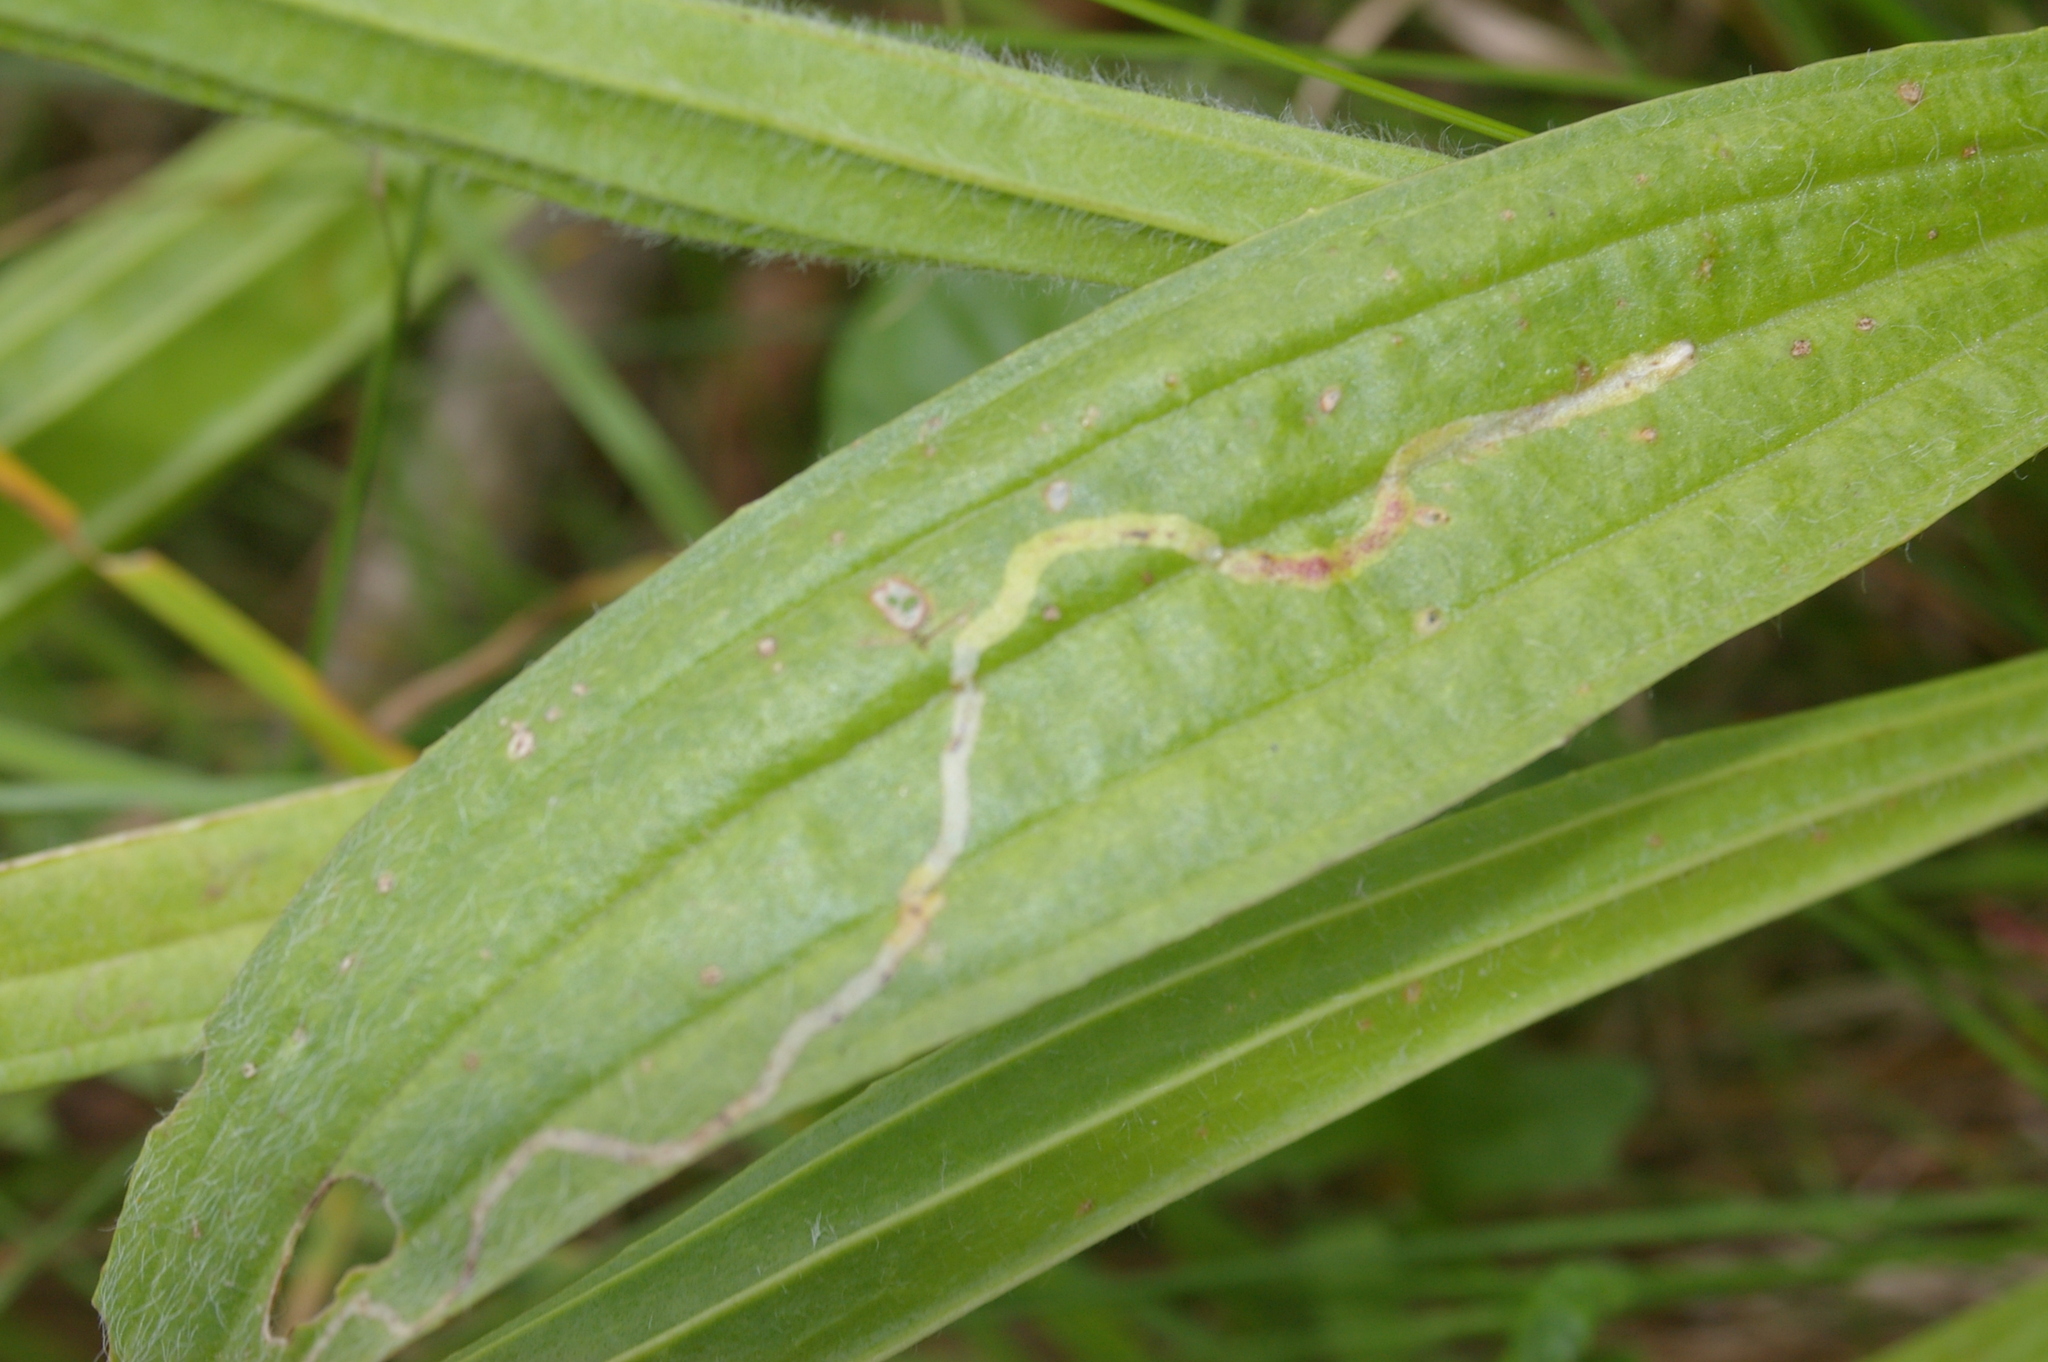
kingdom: Animalia
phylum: Arthropoda
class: Insecta
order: Diptera
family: Agromyzidae
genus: Phytomyza
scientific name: Phytomyza plantaginis
